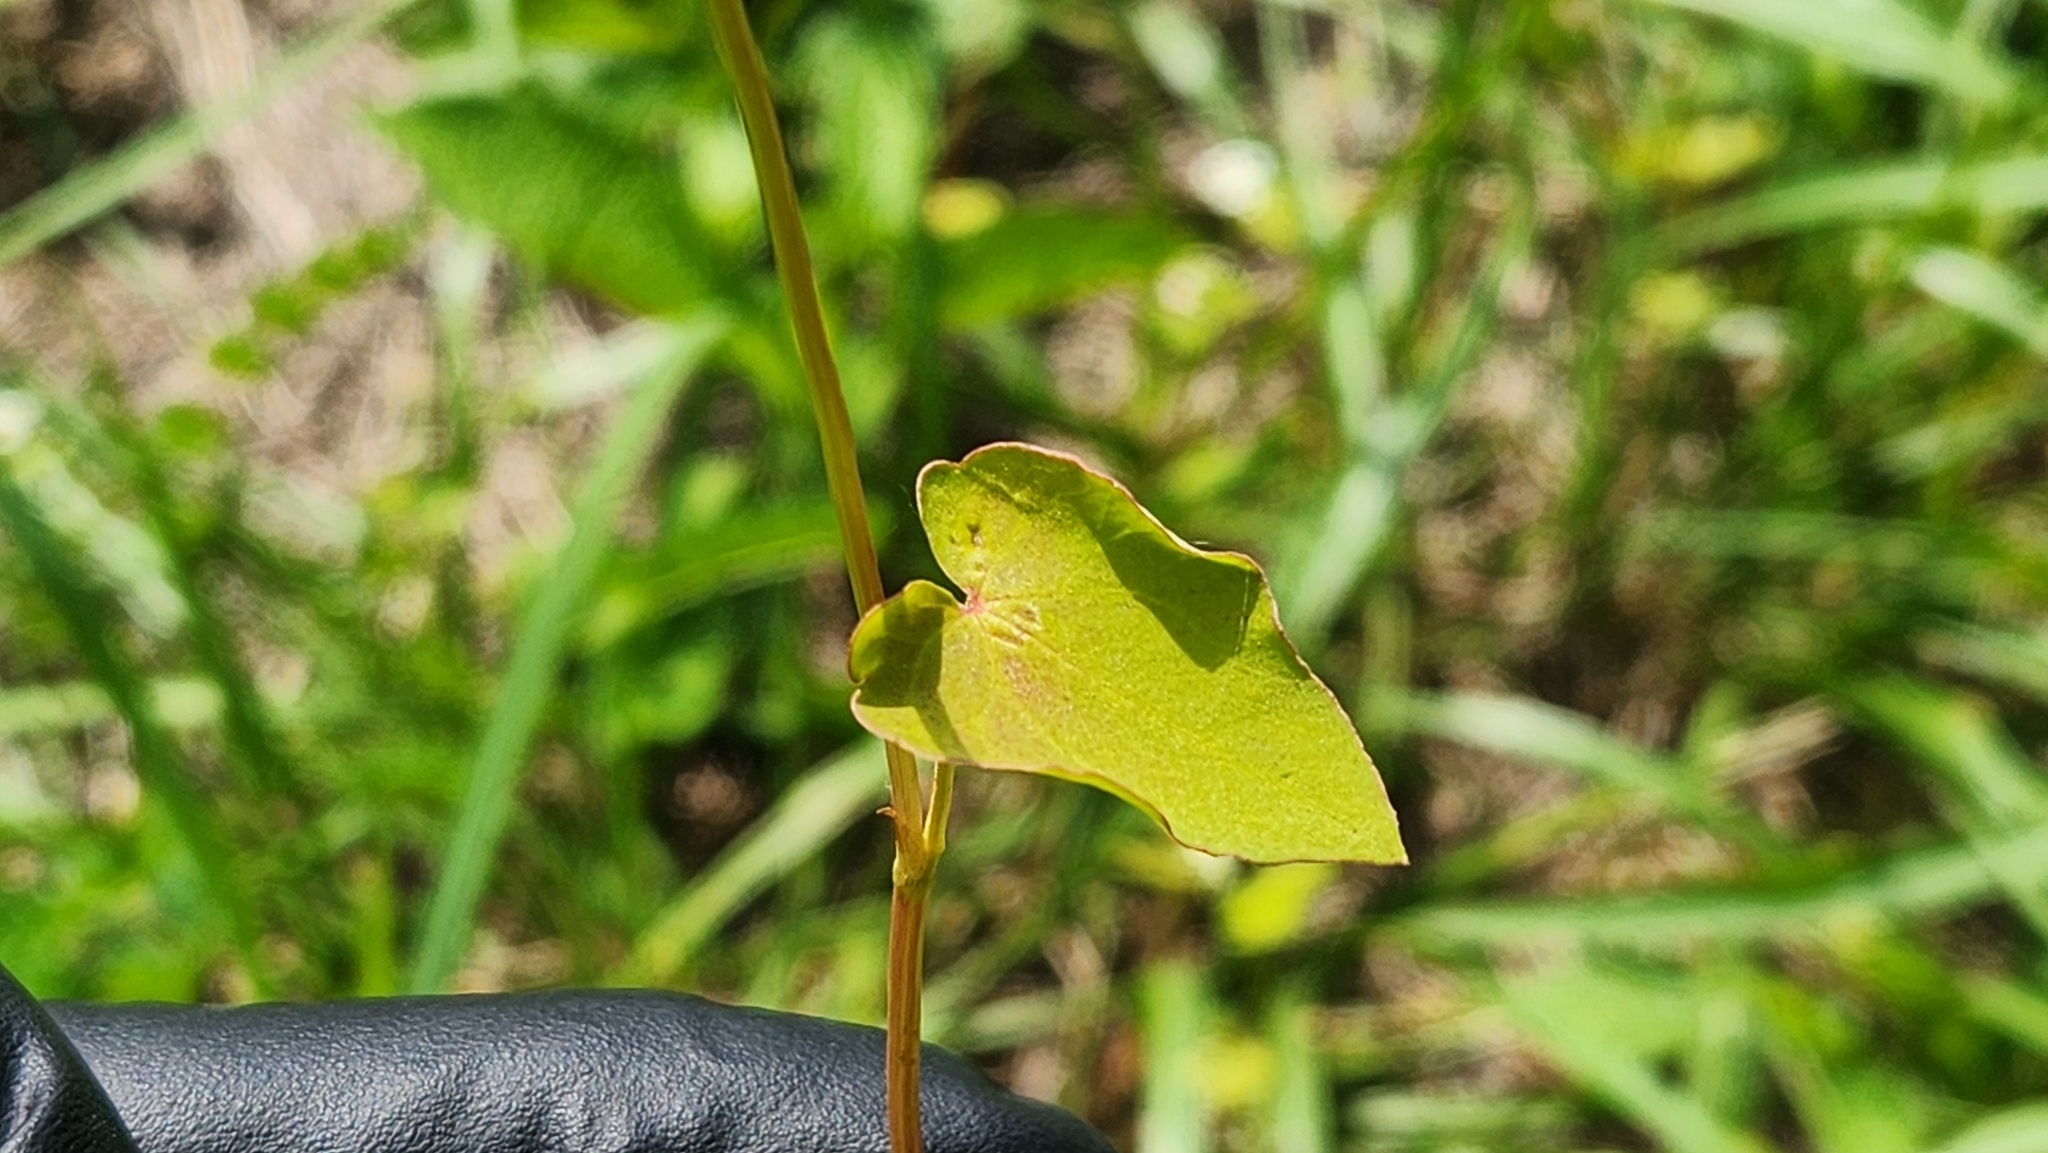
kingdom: Plantae
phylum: Tracheophyta
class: Magnoliopsida
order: Caryophyllales
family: Polygonaceae
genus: Fagopyrum
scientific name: Fagopyrum esculentum
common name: Buckwheat
